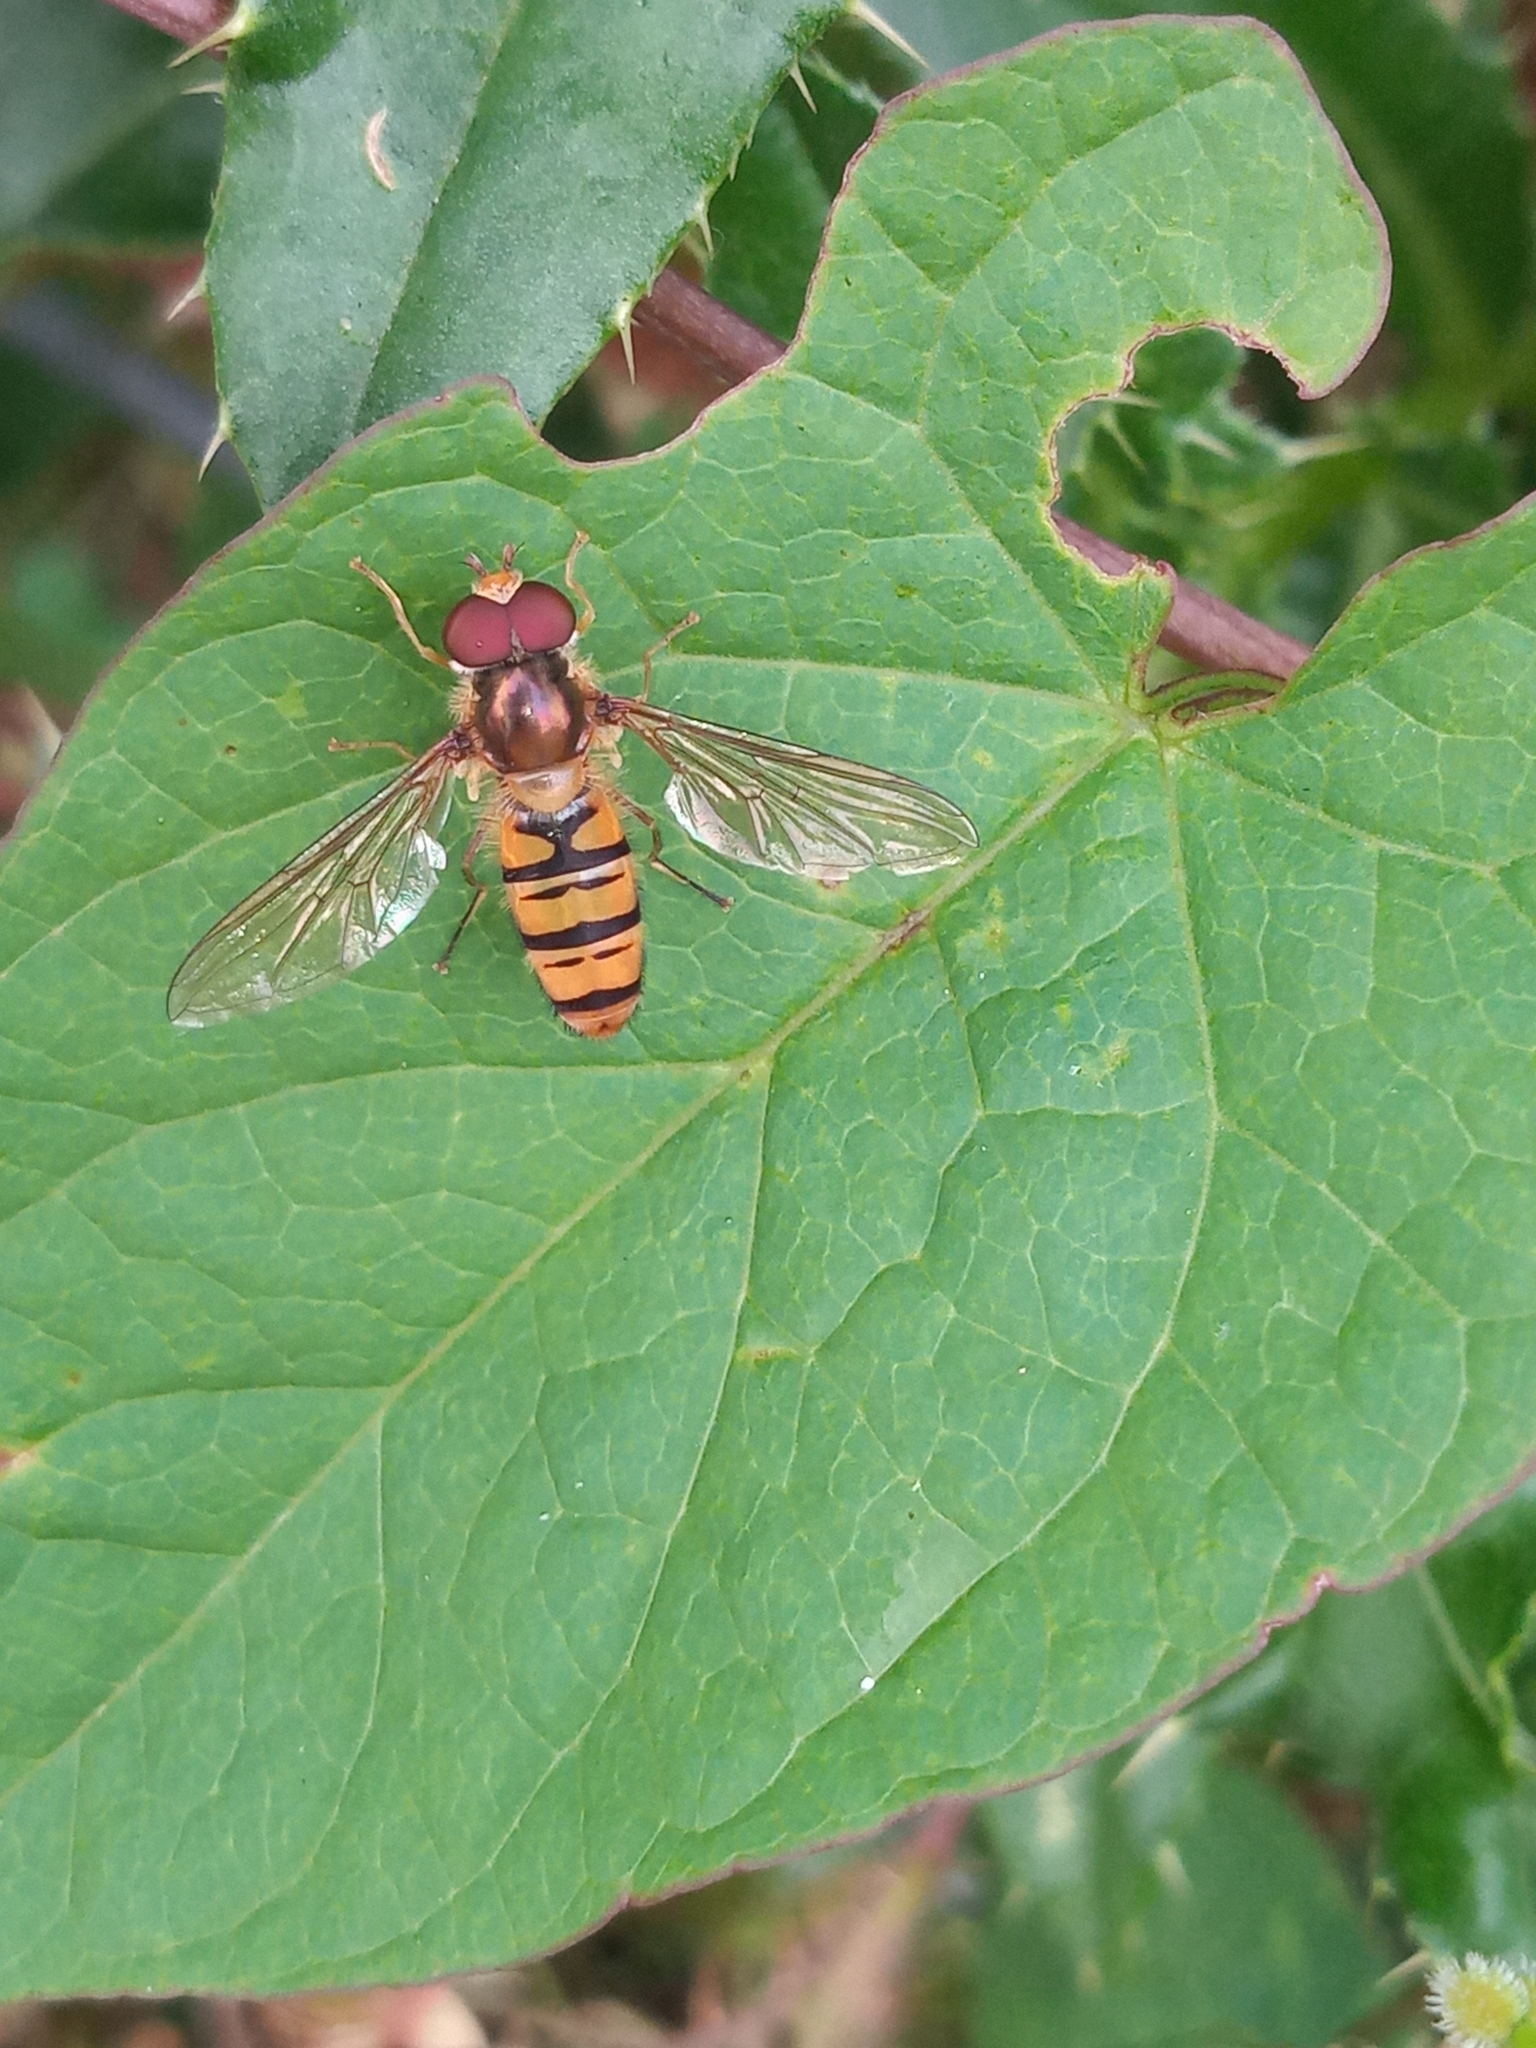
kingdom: Animalia
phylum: Arthropoda
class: Insecta
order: Diptera
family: Syrphidae
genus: Episyrphus
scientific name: Episyrphus balteatus
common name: Marmalade hoverfly
